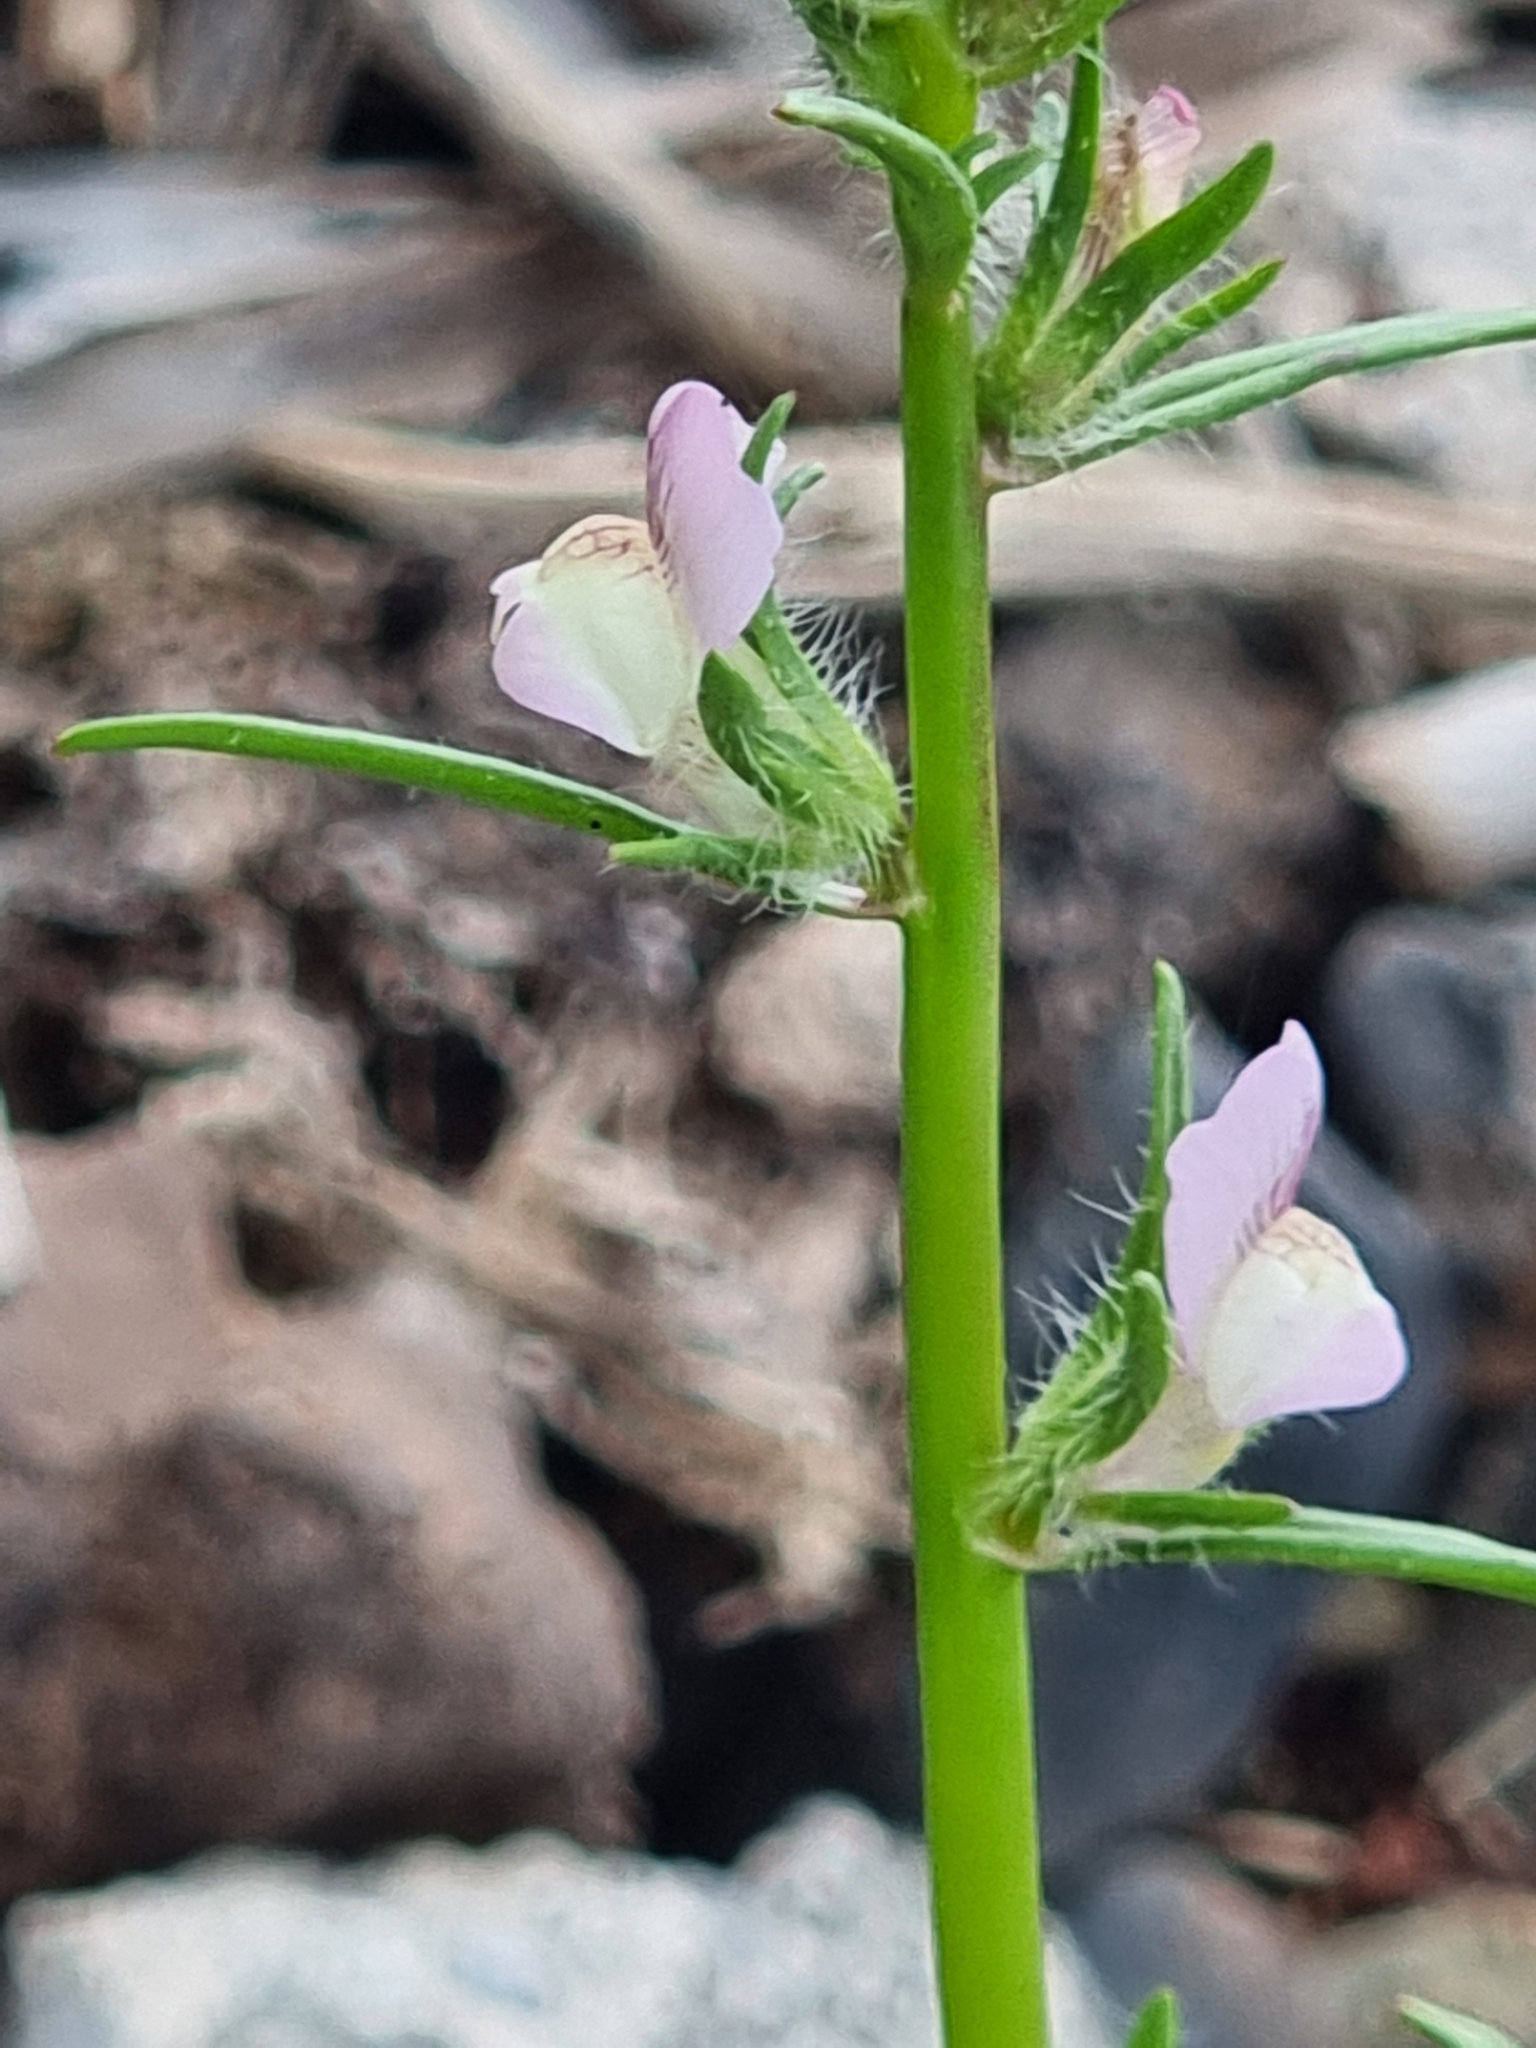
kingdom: Plantae
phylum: Tracheophyta
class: Magnoliopsida
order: Lamiales
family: Plantaginaceae
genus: Misopates
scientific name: Misopates orontium
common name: Weasel's-snout
